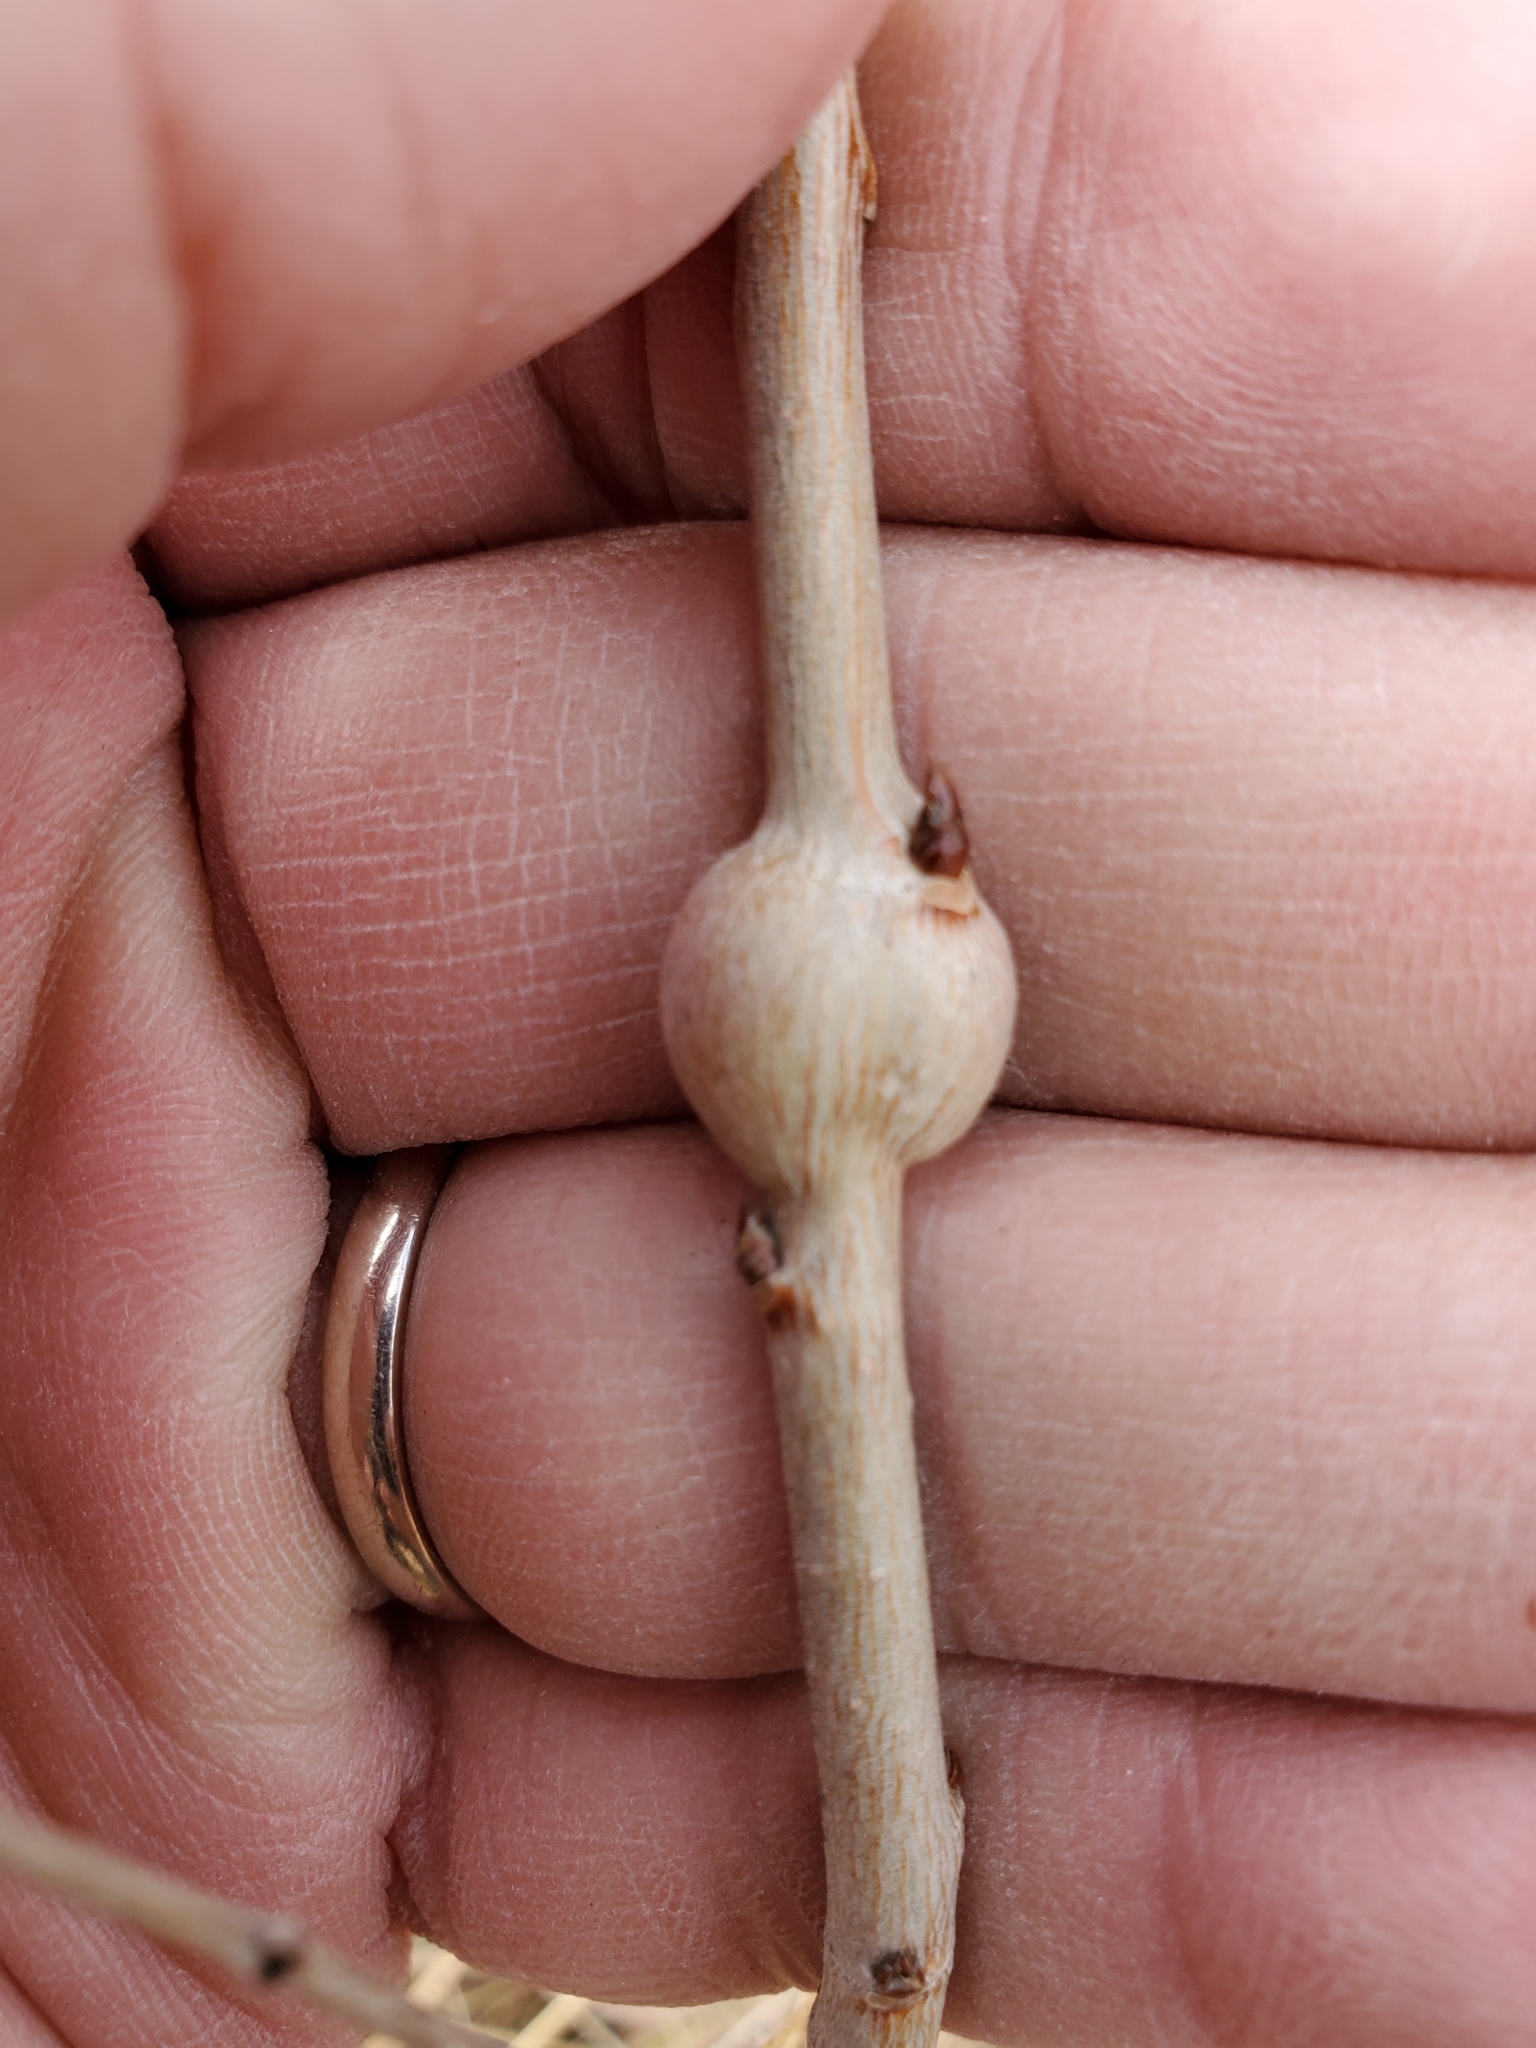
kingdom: Animalia
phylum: Arthropoda
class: Insecta
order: Diptera
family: Agromyzidae
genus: Euhexomyza
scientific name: Euhexomyza schineri
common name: Poplar twiggall fly
